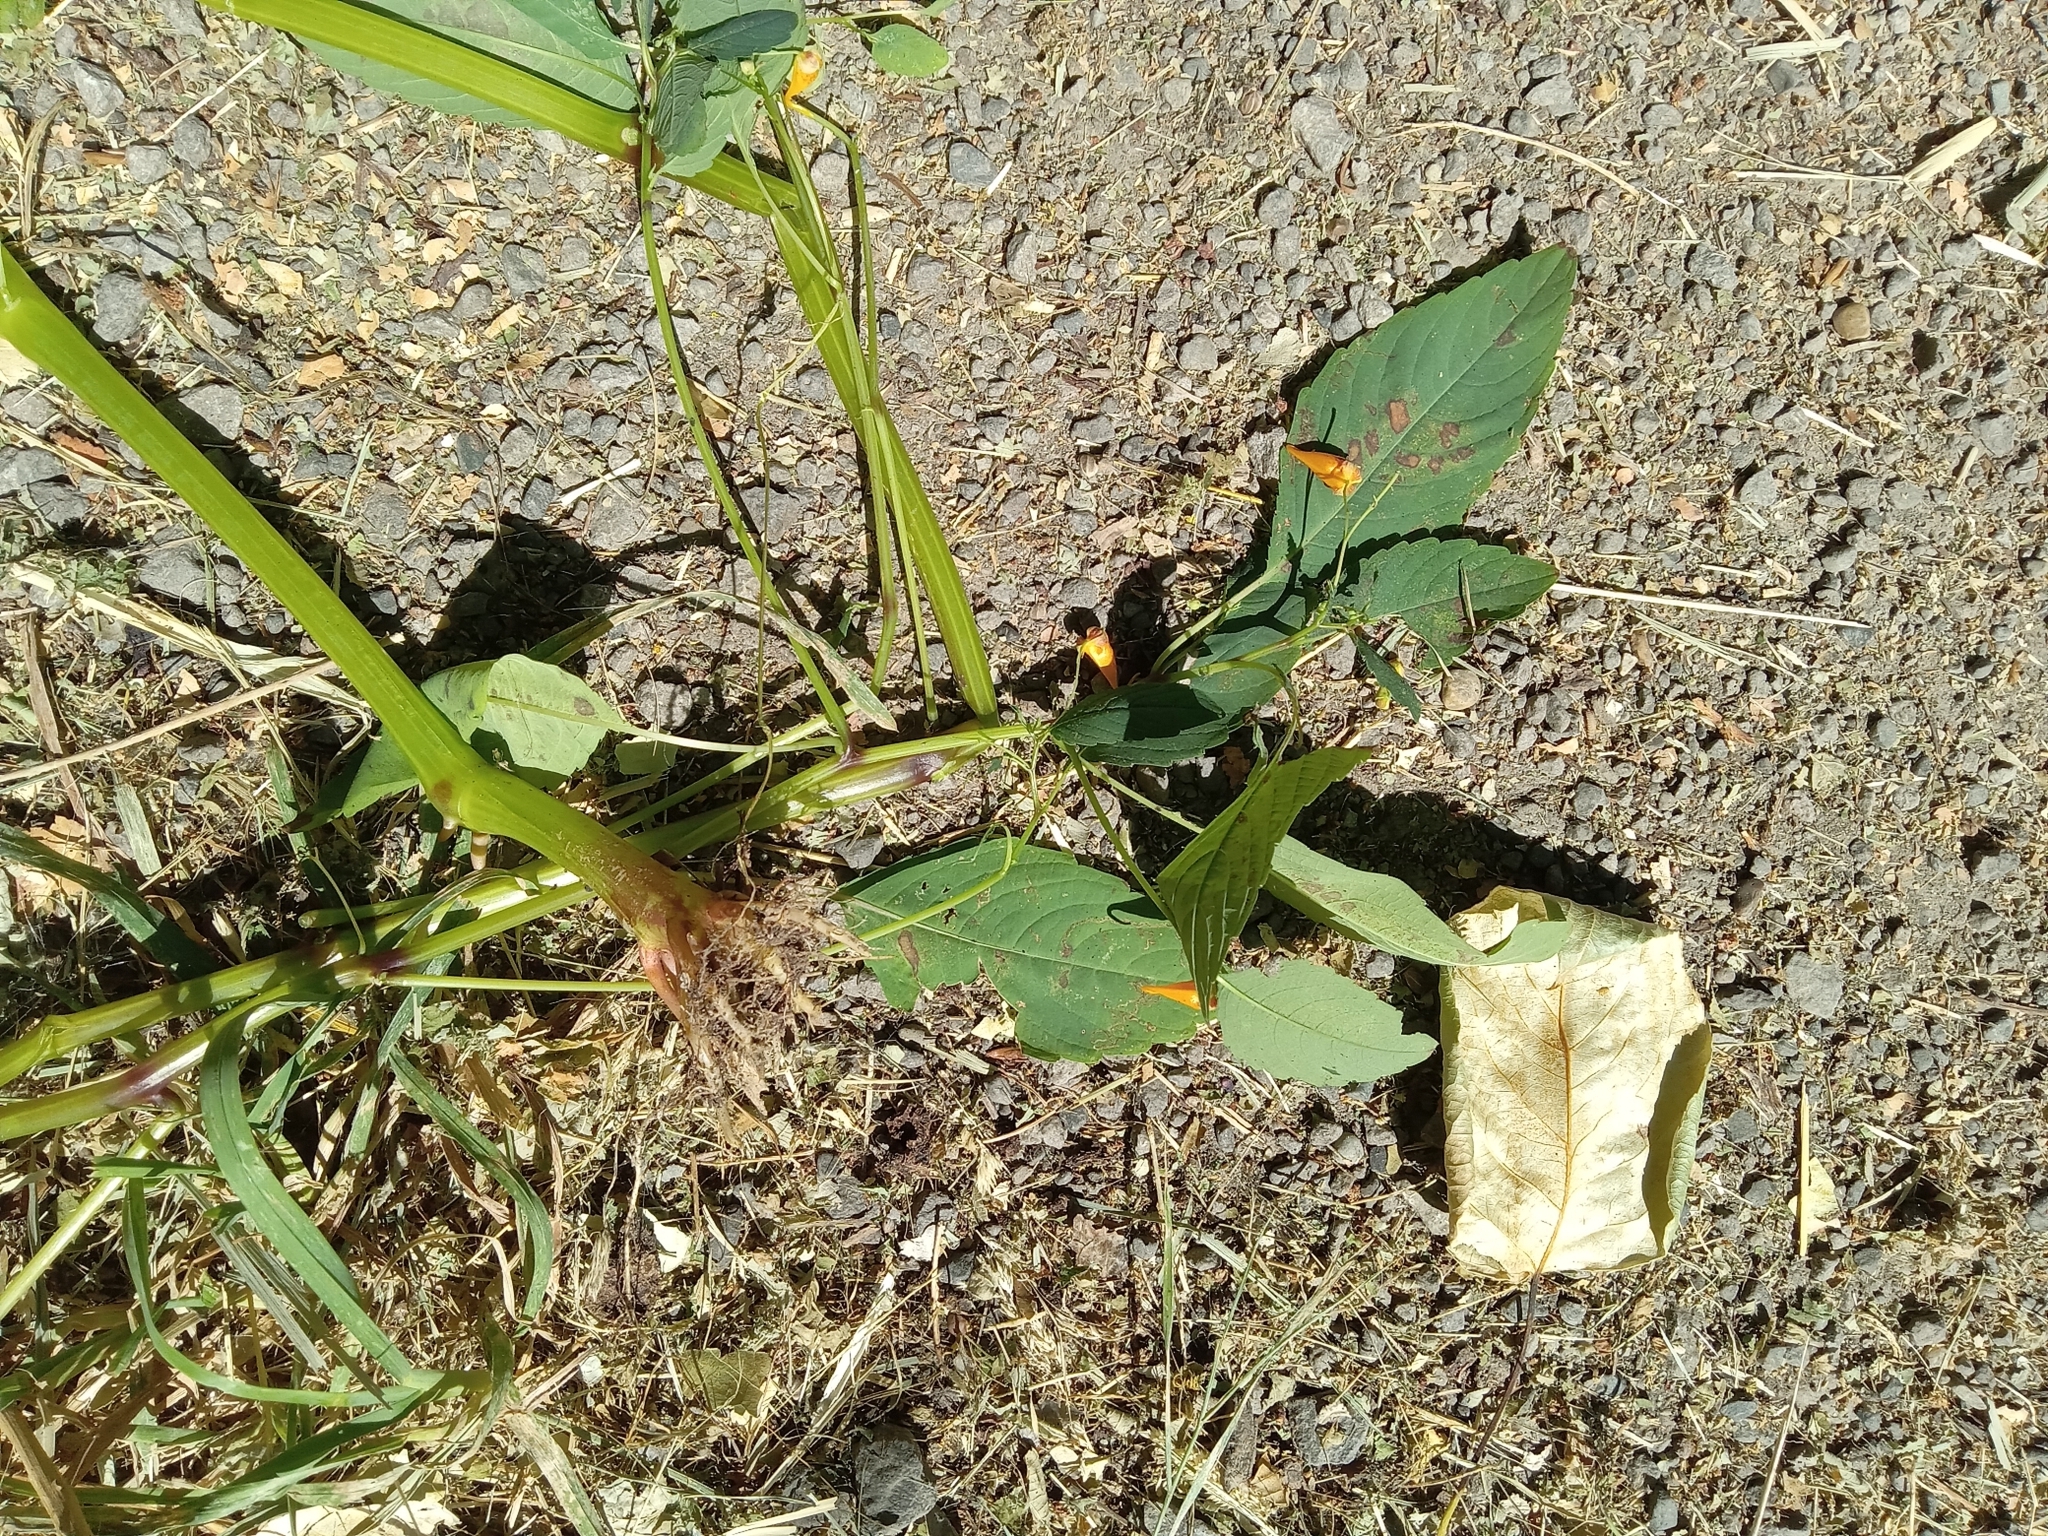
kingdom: Plantae
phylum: Tracheophyta
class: Magnoliopsida
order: Ericales
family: Balsaminaceae
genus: Impatiens
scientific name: Impatiens capensis
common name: Orange balsam
